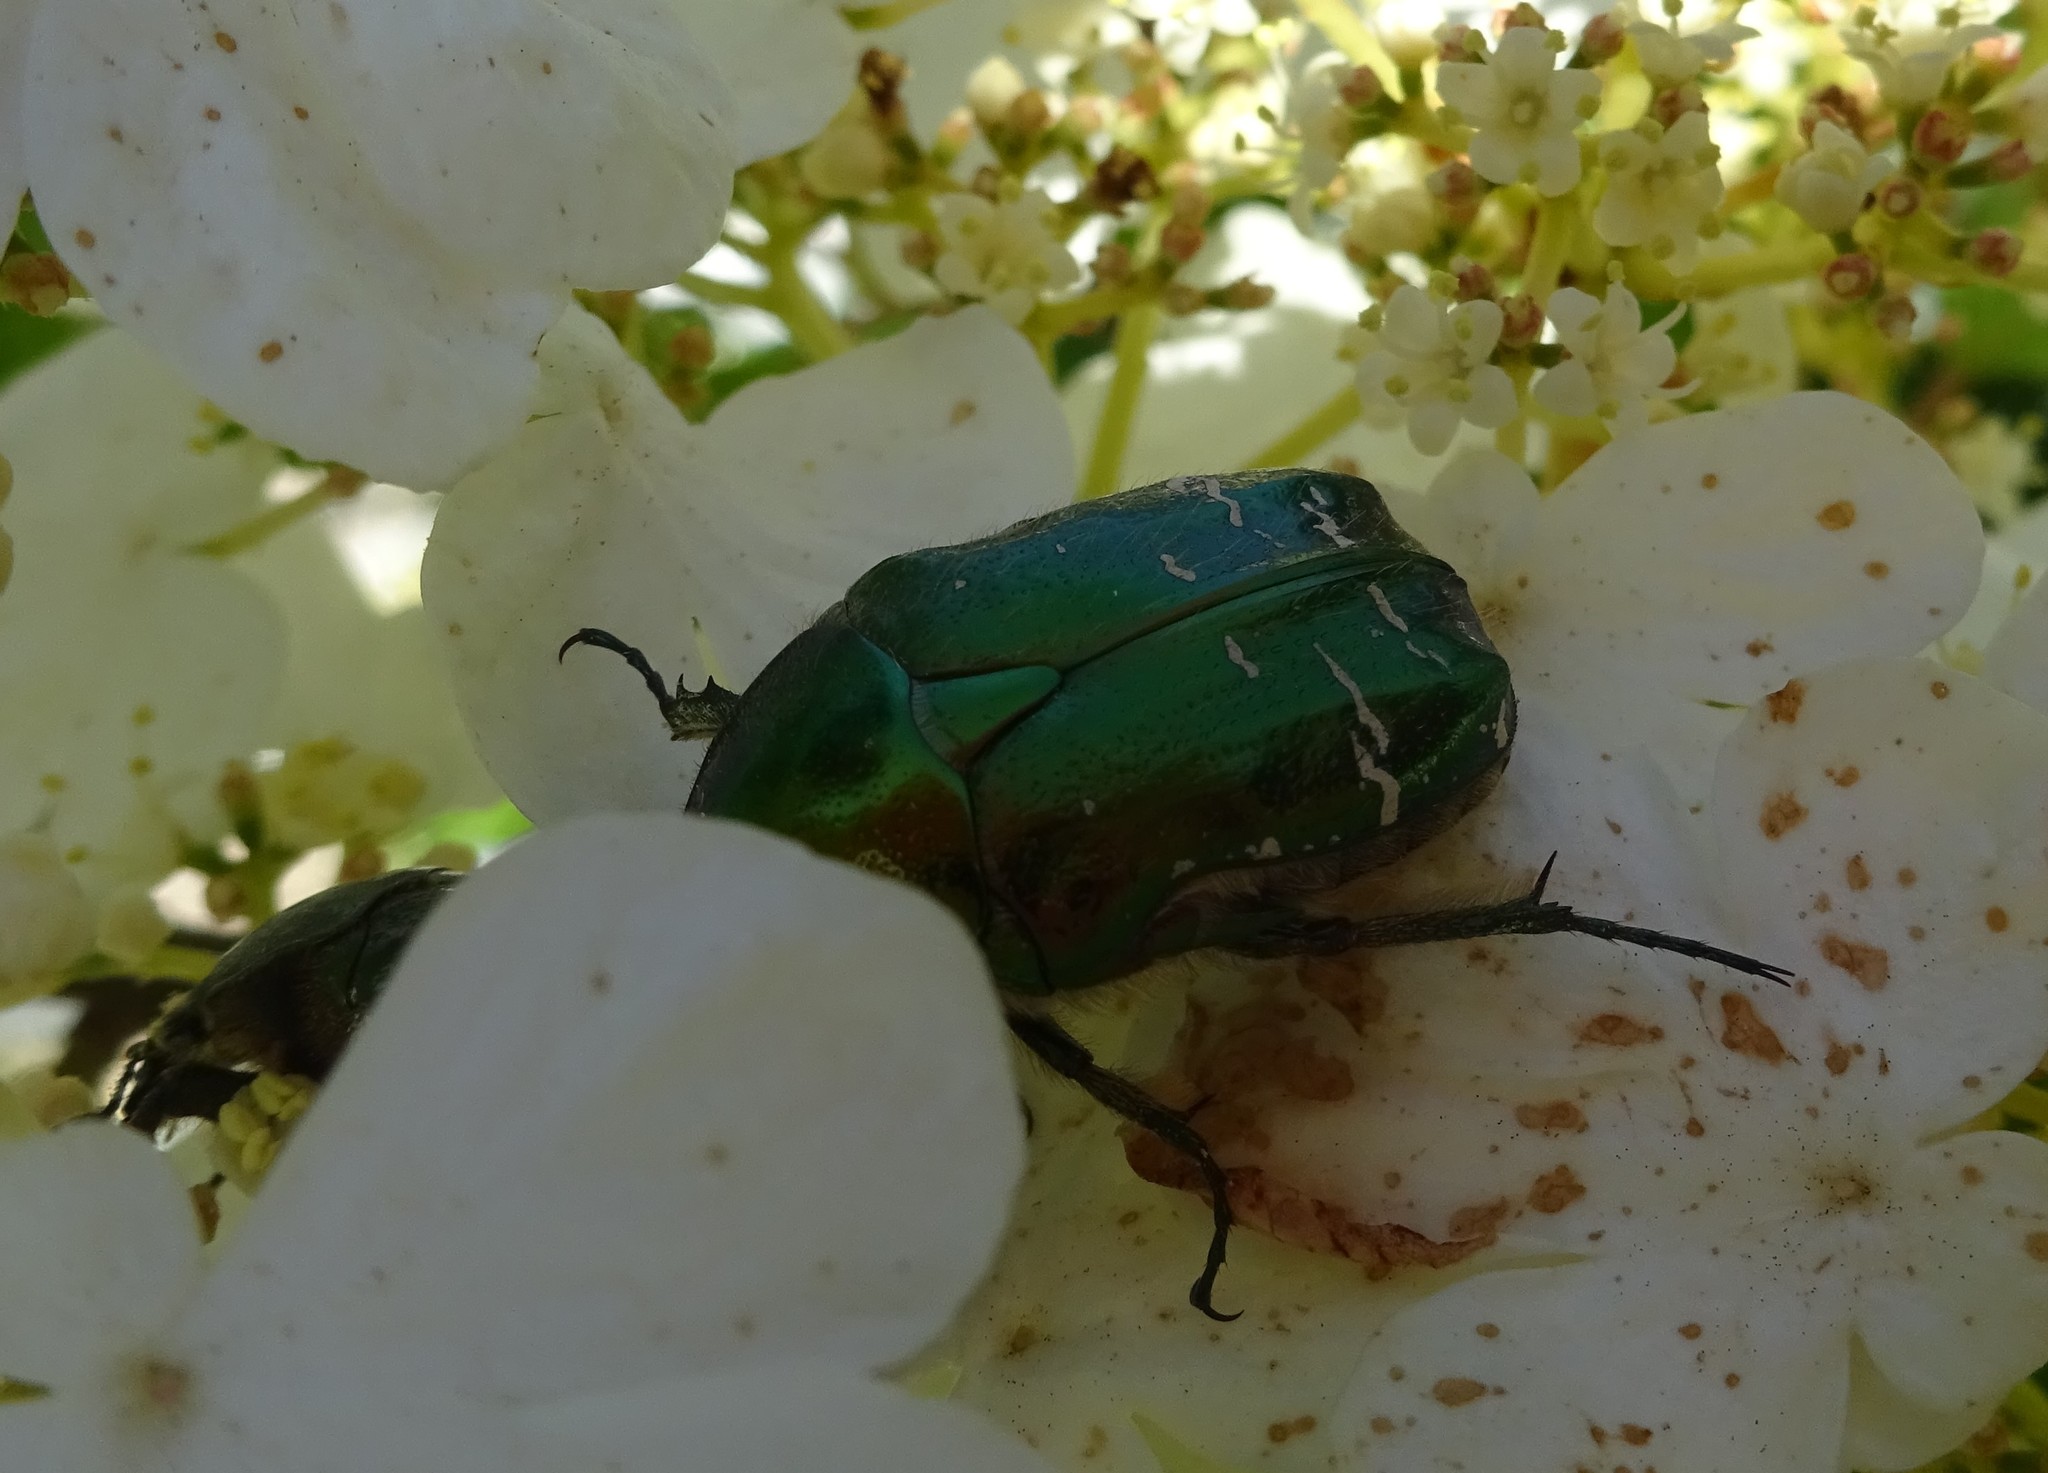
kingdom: Animalia
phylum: Arthropoda
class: Insecta
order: Coleoptera
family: Scarabaeidae
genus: Cetonia
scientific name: Cetonia aurata
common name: Rose chafer
